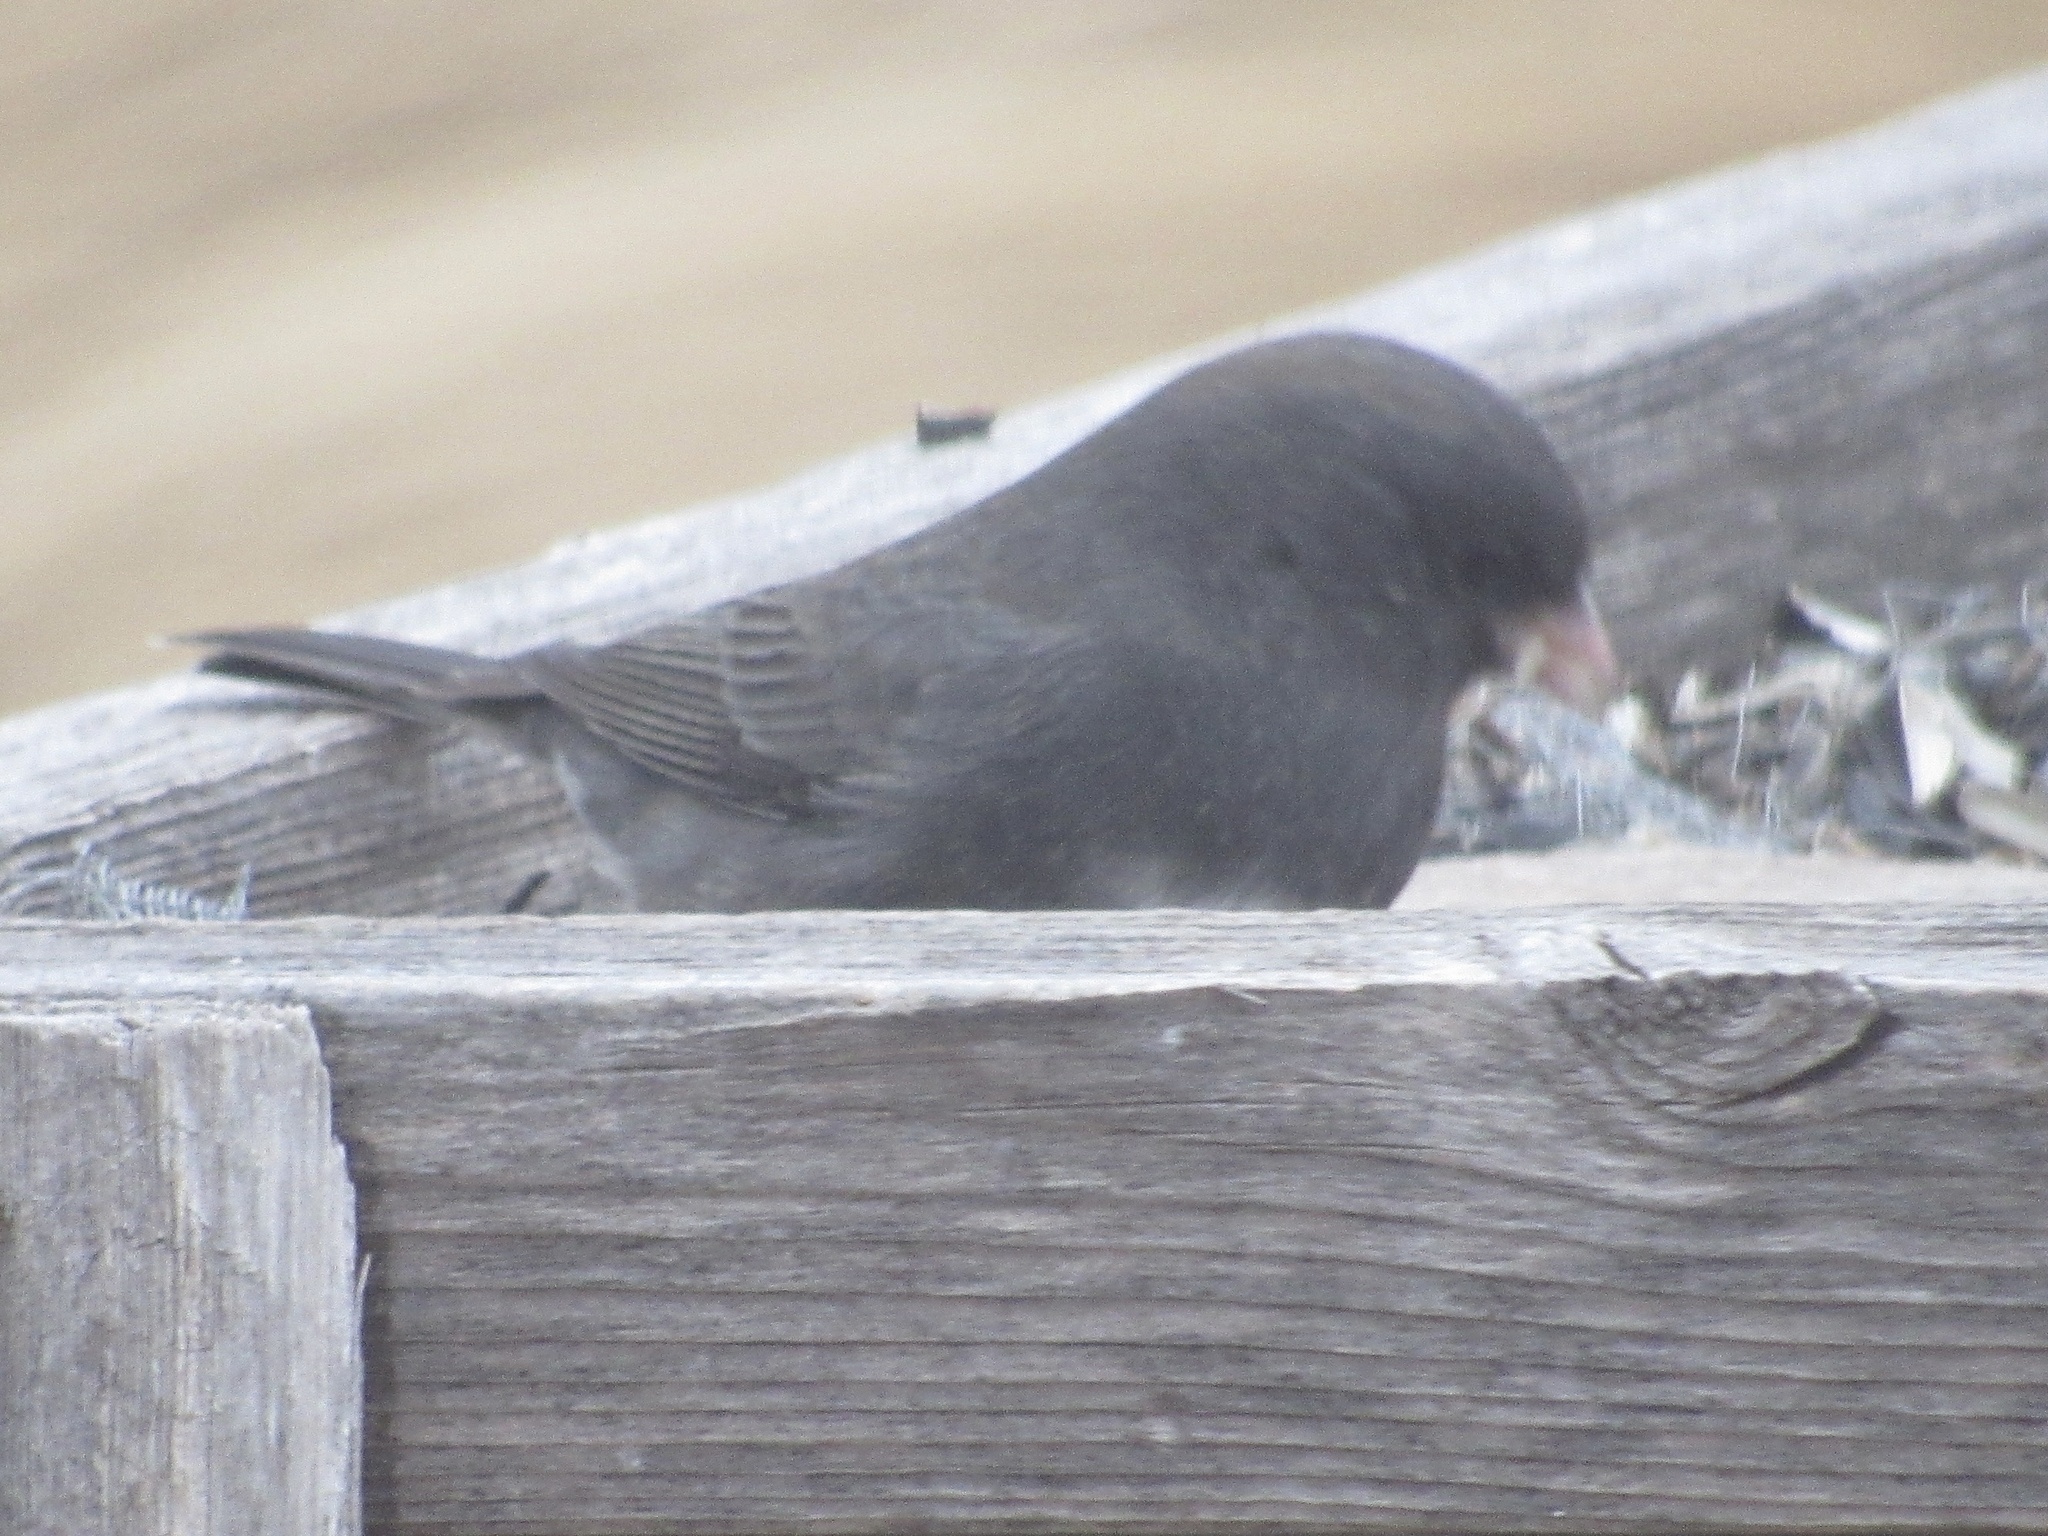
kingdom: Animalia
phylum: Chordata
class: Aves
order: Passeriformes
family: Passerellidae
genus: Junco
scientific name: Junco hyemalis
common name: Dark-eyed junco
